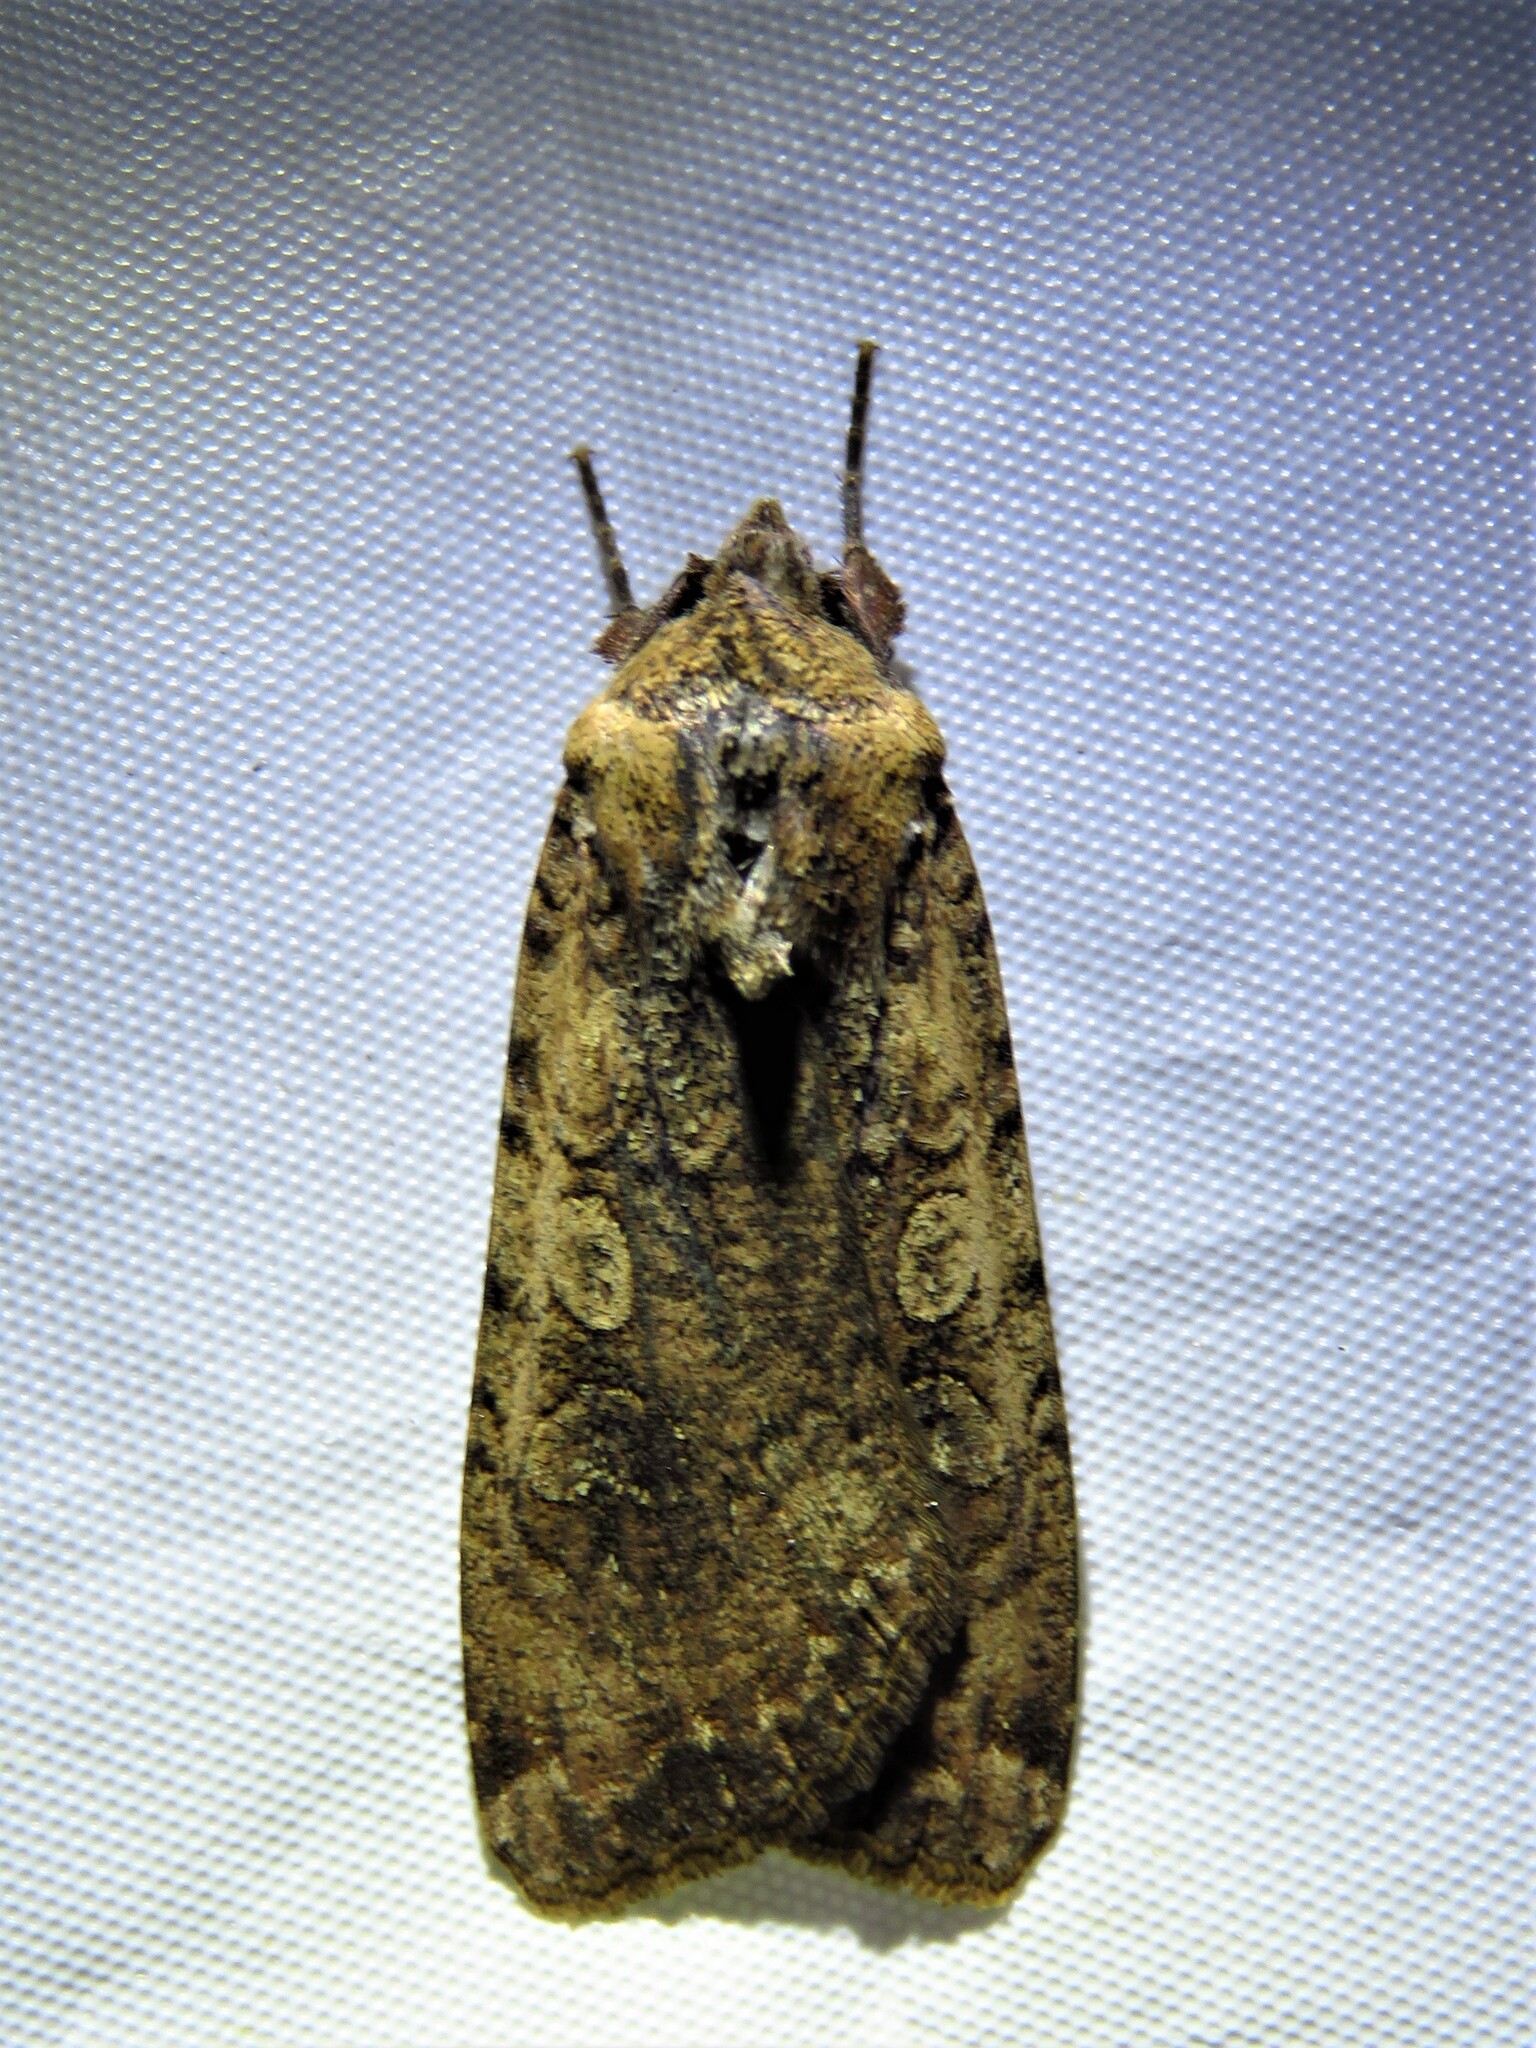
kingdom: Animalia
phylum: Arthropoda
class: Insecta
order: Lepidoptera
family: Noctuidae
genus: Peridroma
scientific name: Peridroma saucia
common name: Pearly underwing
